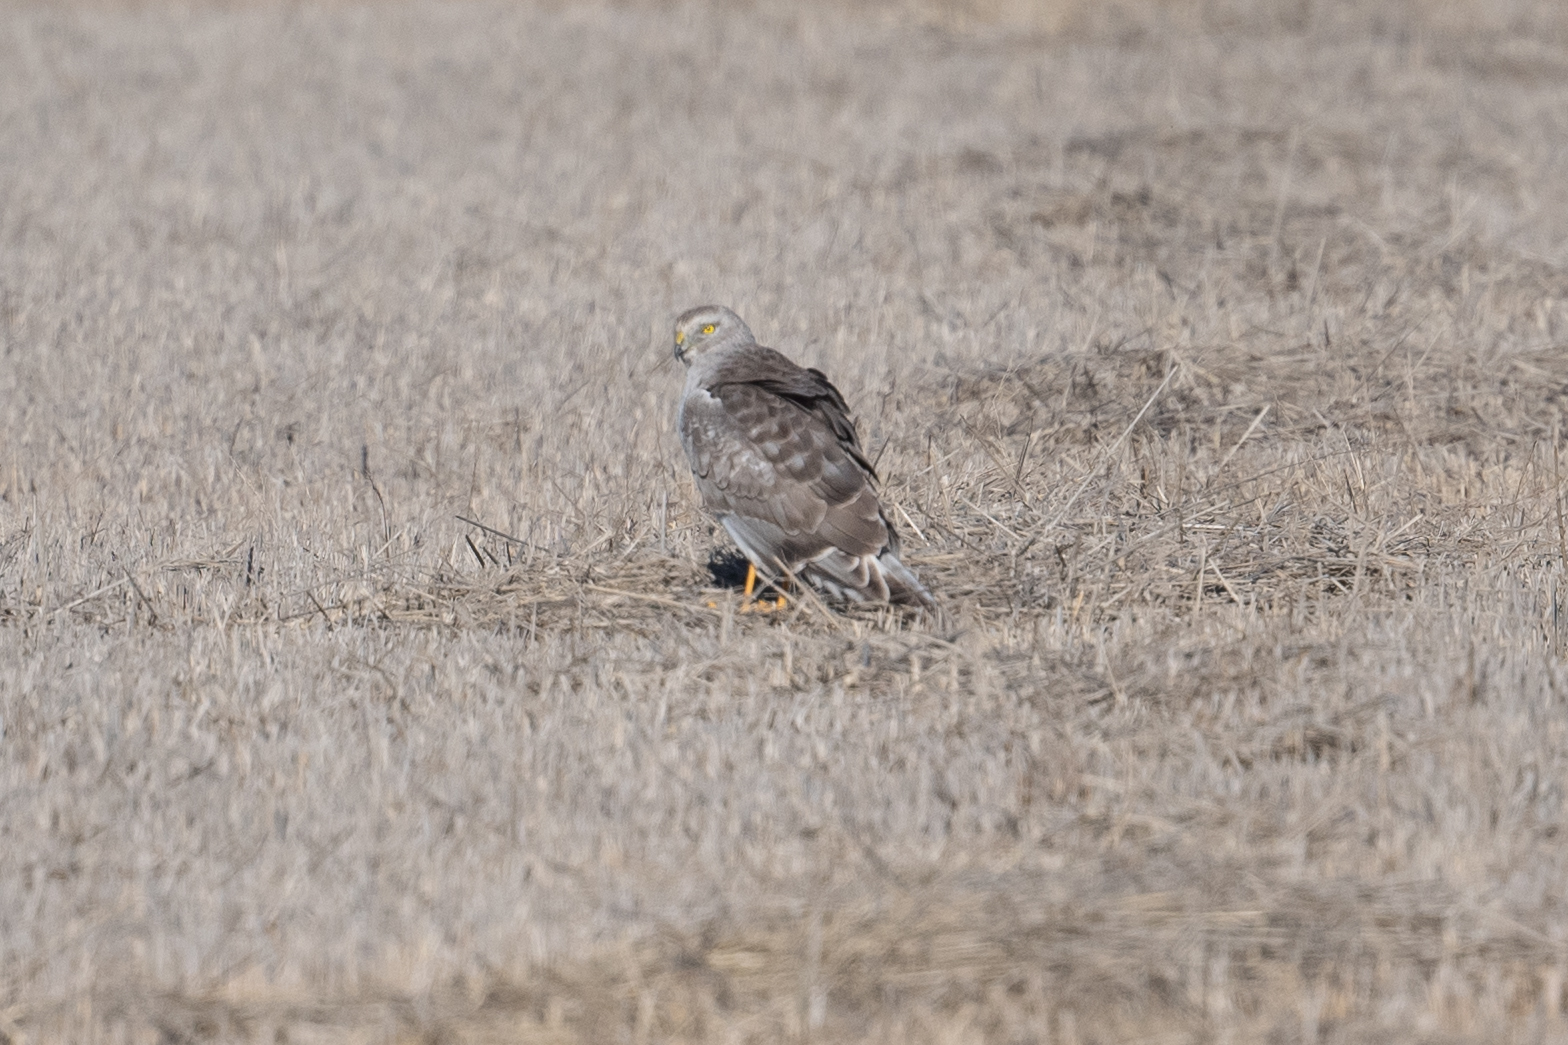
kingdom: Animalia
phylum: Chordata
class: Aves
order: Accipitriformes
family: Accipitridae
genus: Circus
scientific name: Circus cyaneus
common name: Hen harrier
